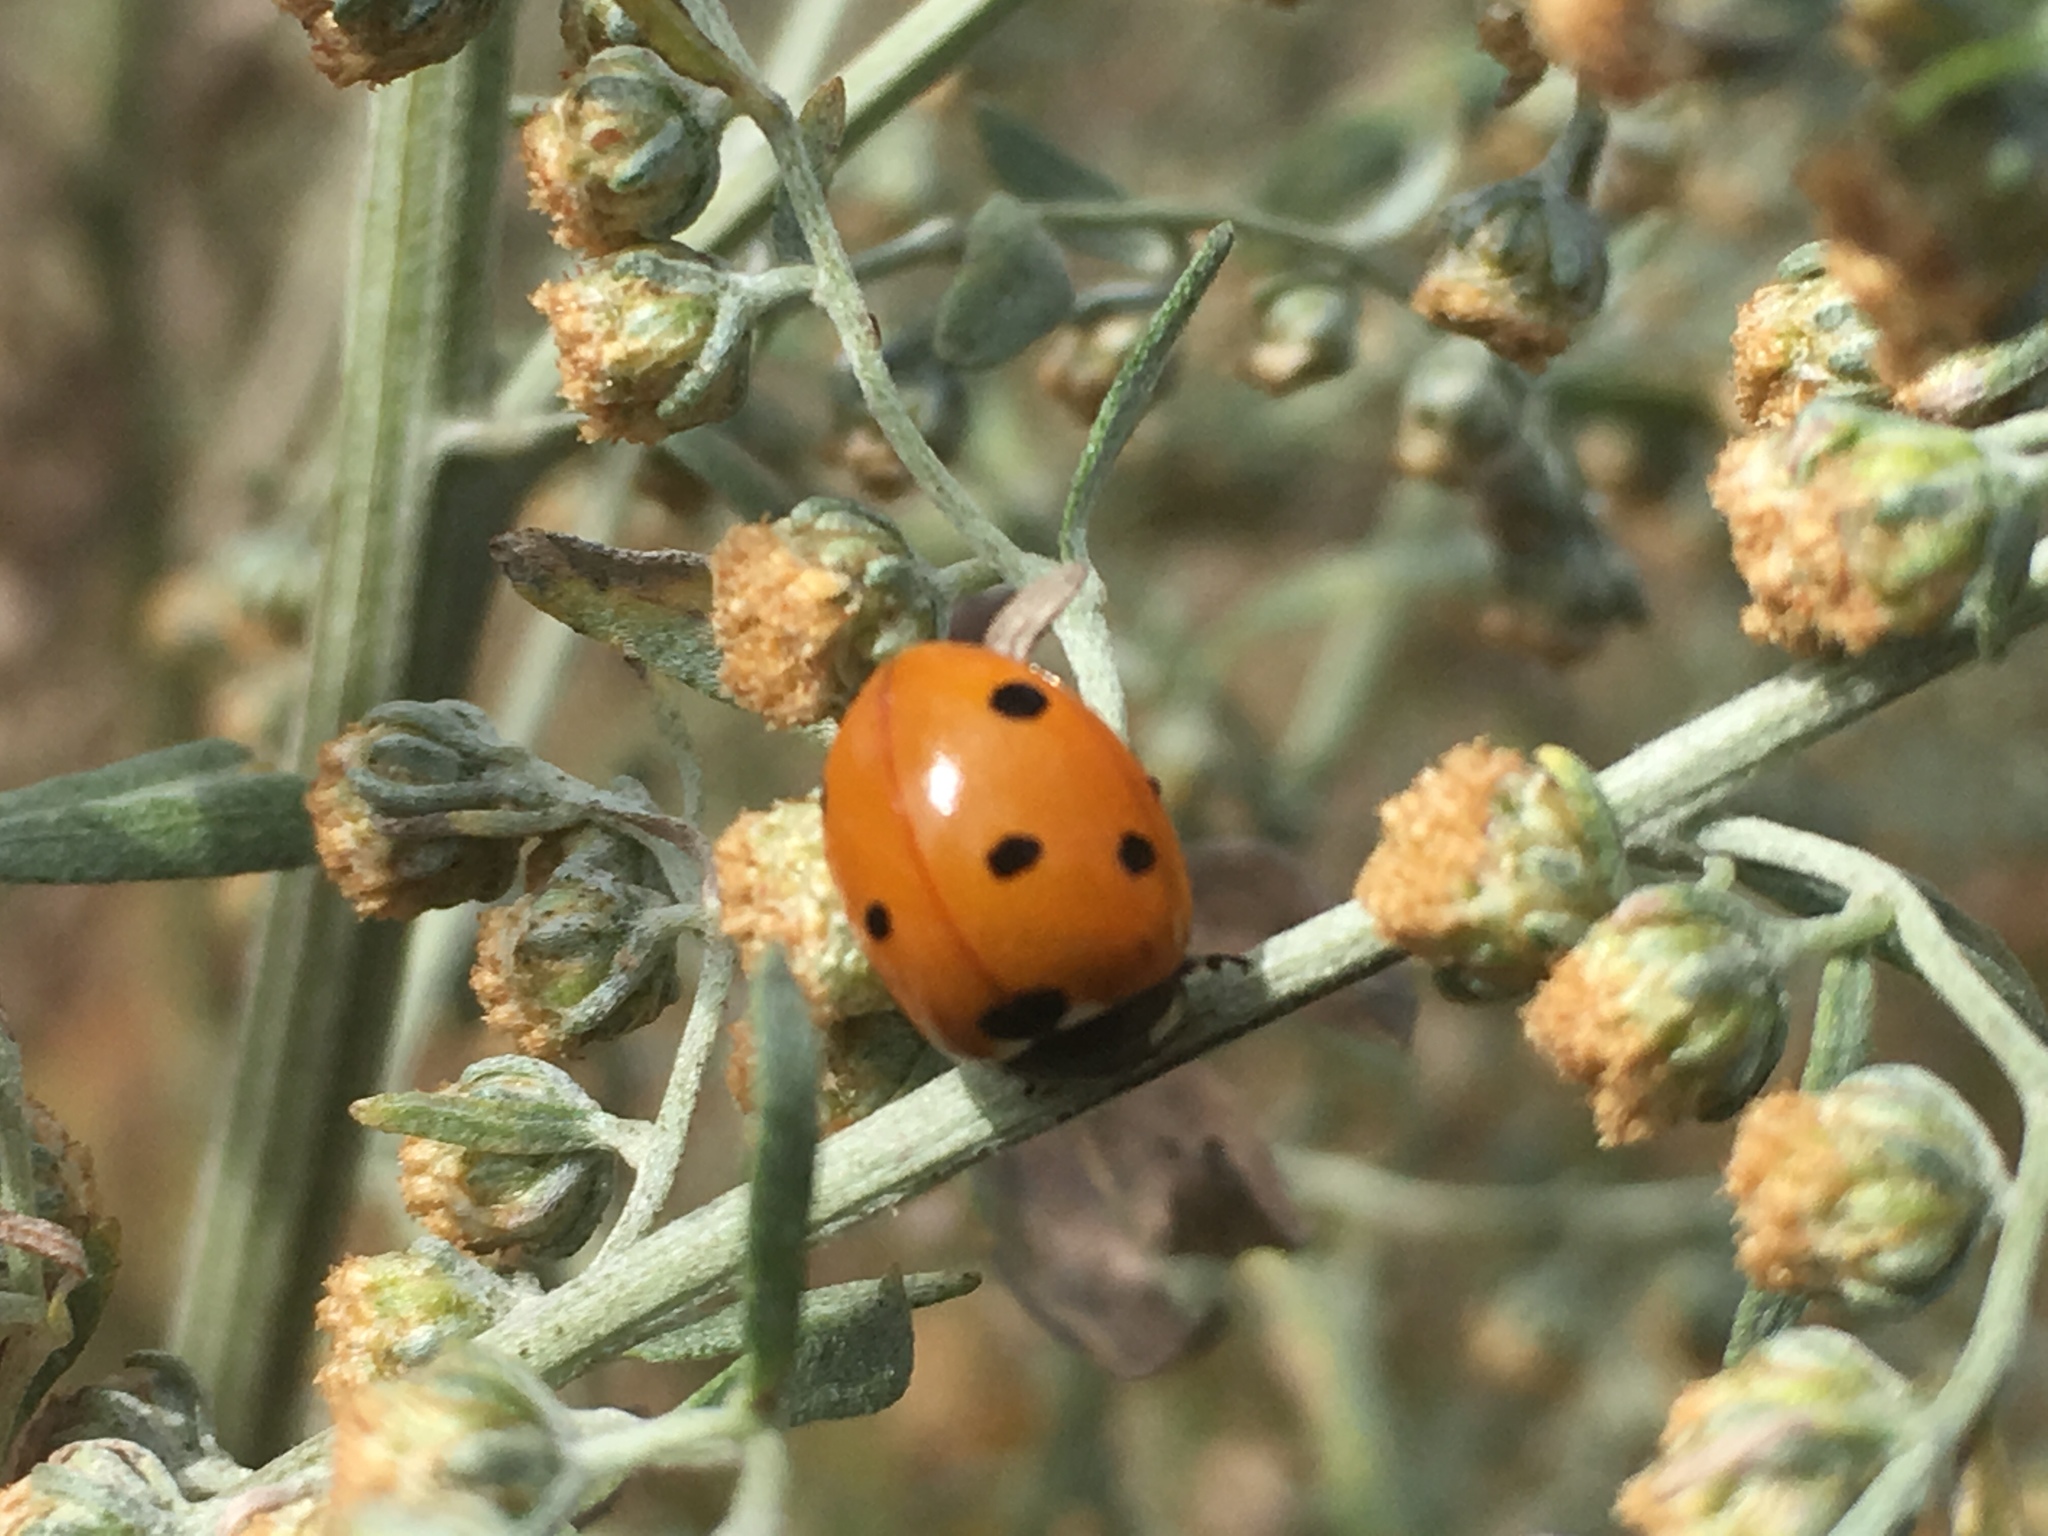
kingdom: Animalia
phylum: Arthropoda
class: Insecta
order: Coleoptera
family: Coccinellidae
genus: Coccinella
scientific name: Coccinella septempunctata
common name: Sevenspotted lady beetle
